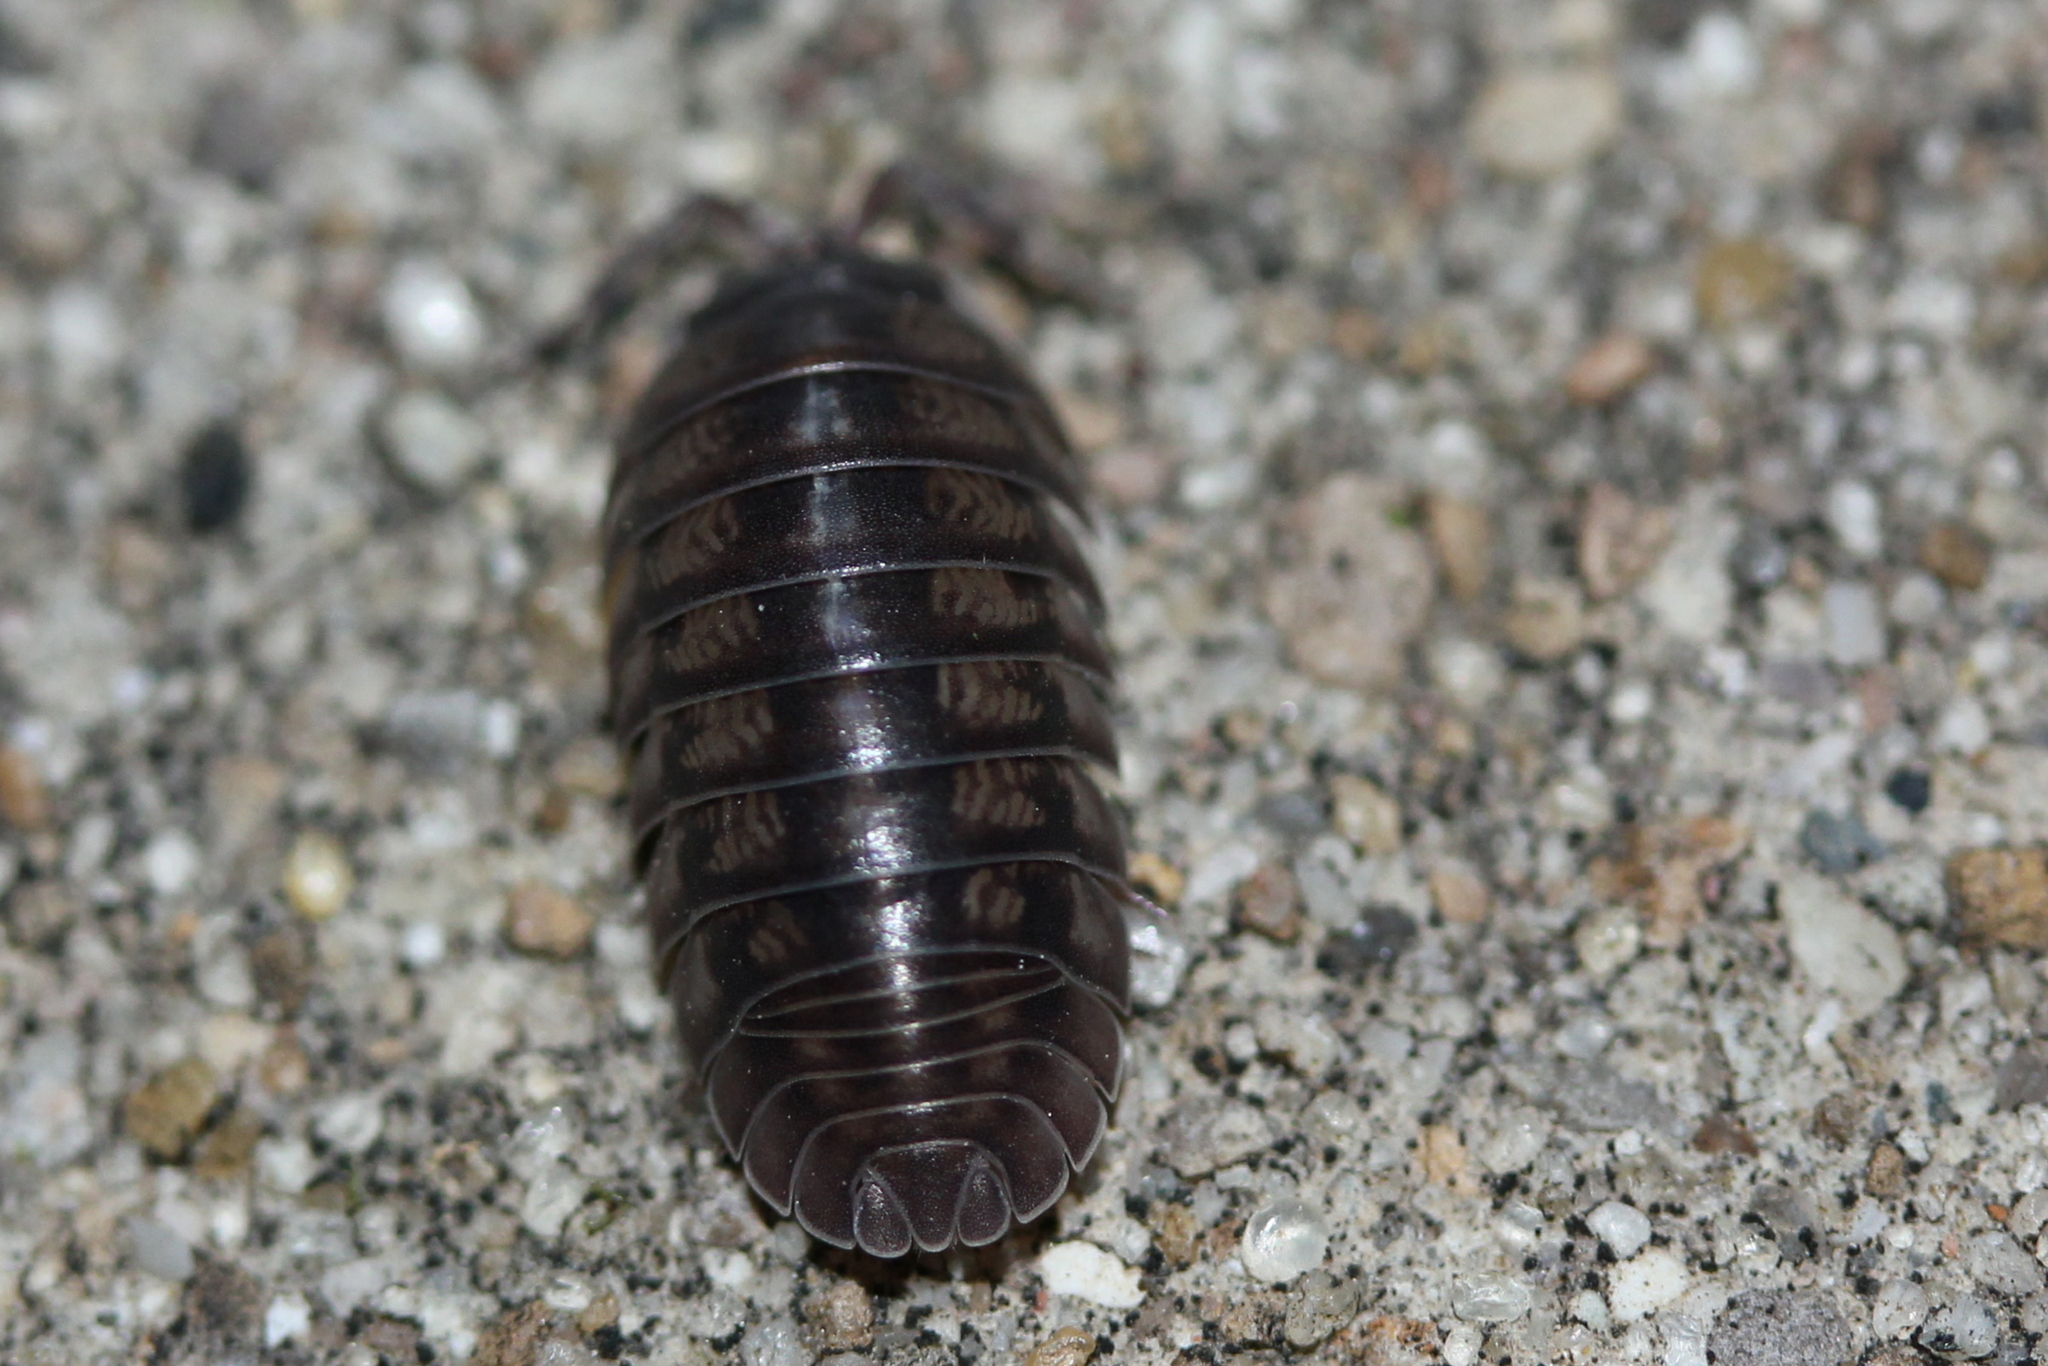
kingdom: Animalia
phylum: Arthropoda
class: Malacostraca
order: Isopoda
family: Armadillidiidae
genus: Armadillidium
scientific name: Armadillidium nasatum
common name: Isopod
